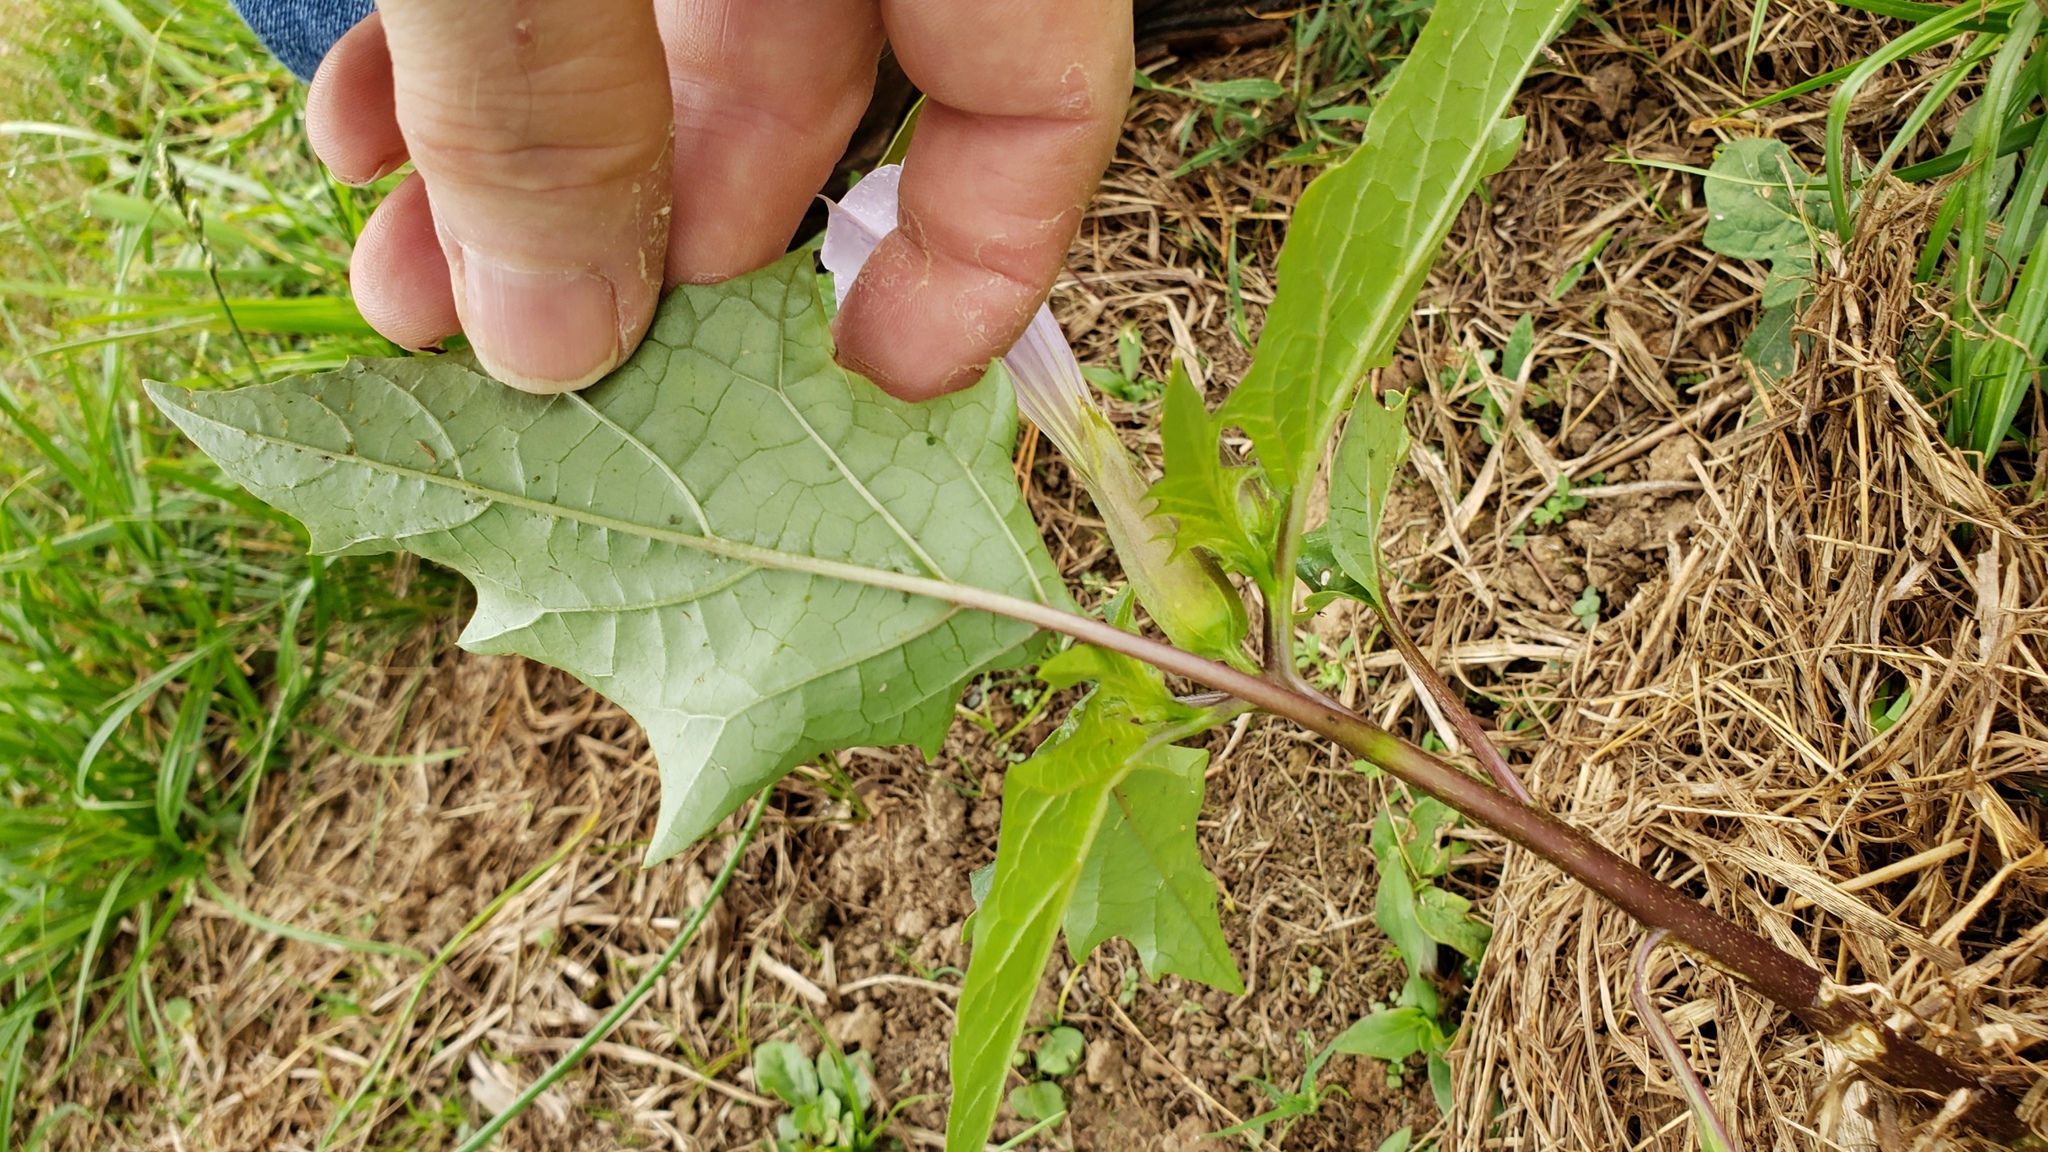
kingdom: Plantae
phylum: Tracheophyta
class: Magnoliopsida
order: Solanales
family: Solanaceae
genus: Datura
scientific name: Datura stramonium
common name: Thorn-apple
